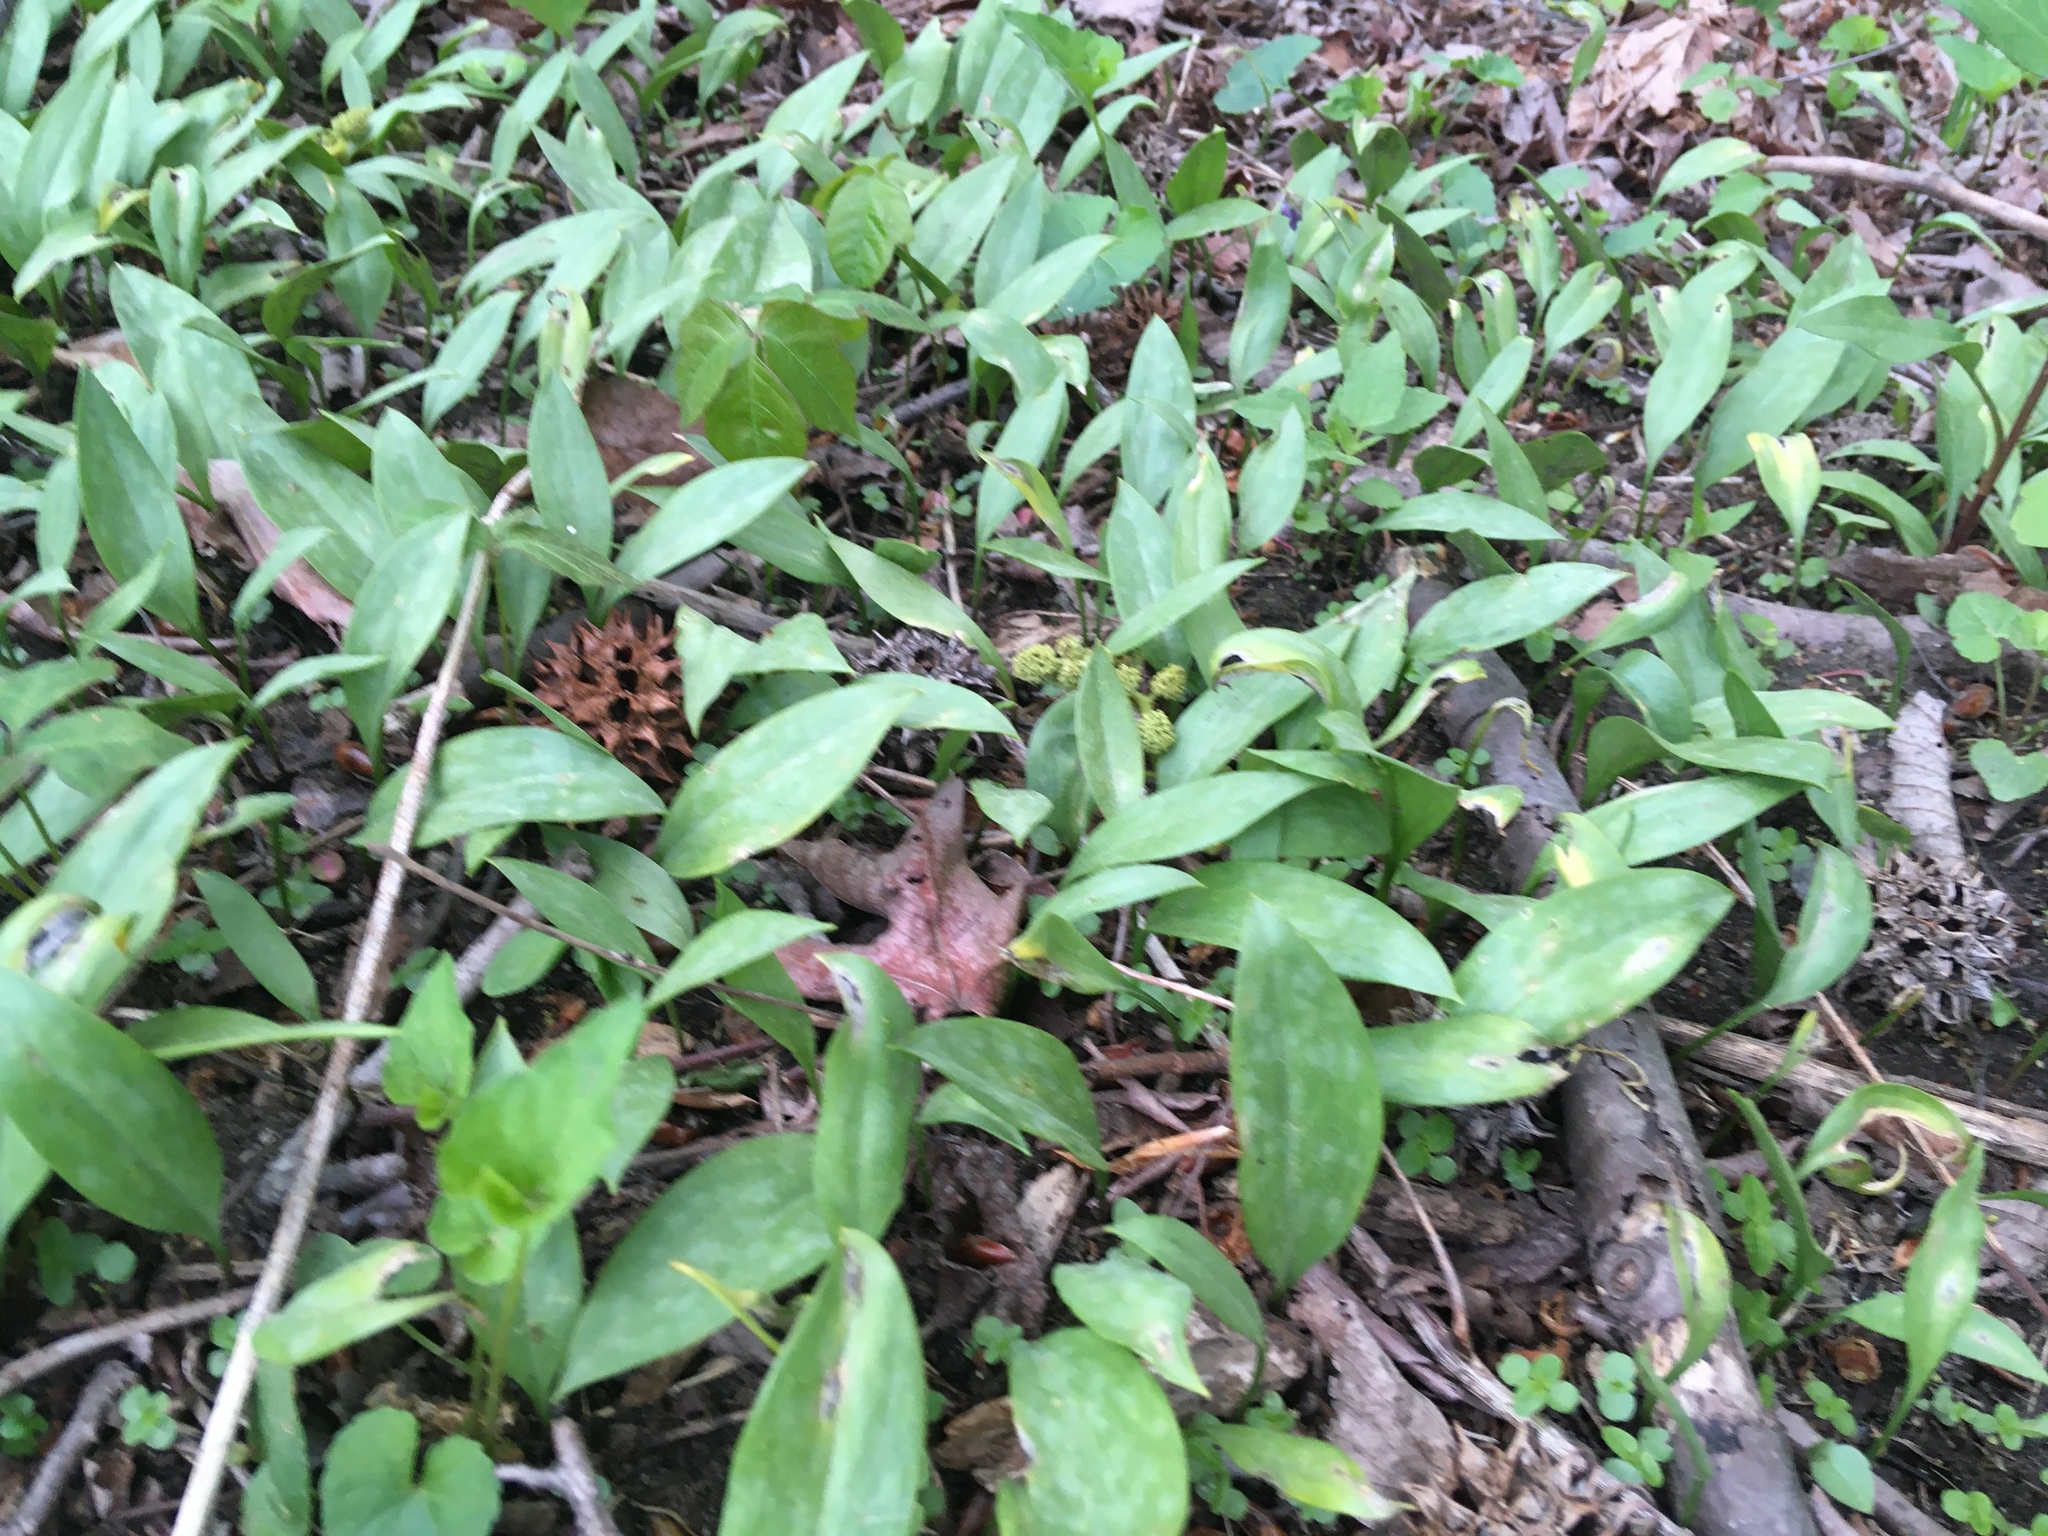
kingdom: Plantae
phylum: Tracheophyta
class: Liliopsida
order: Liliales
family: Liliaceae
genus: Erythronium
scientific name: Erythronium americanum
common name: Yellow adder's-tongue
